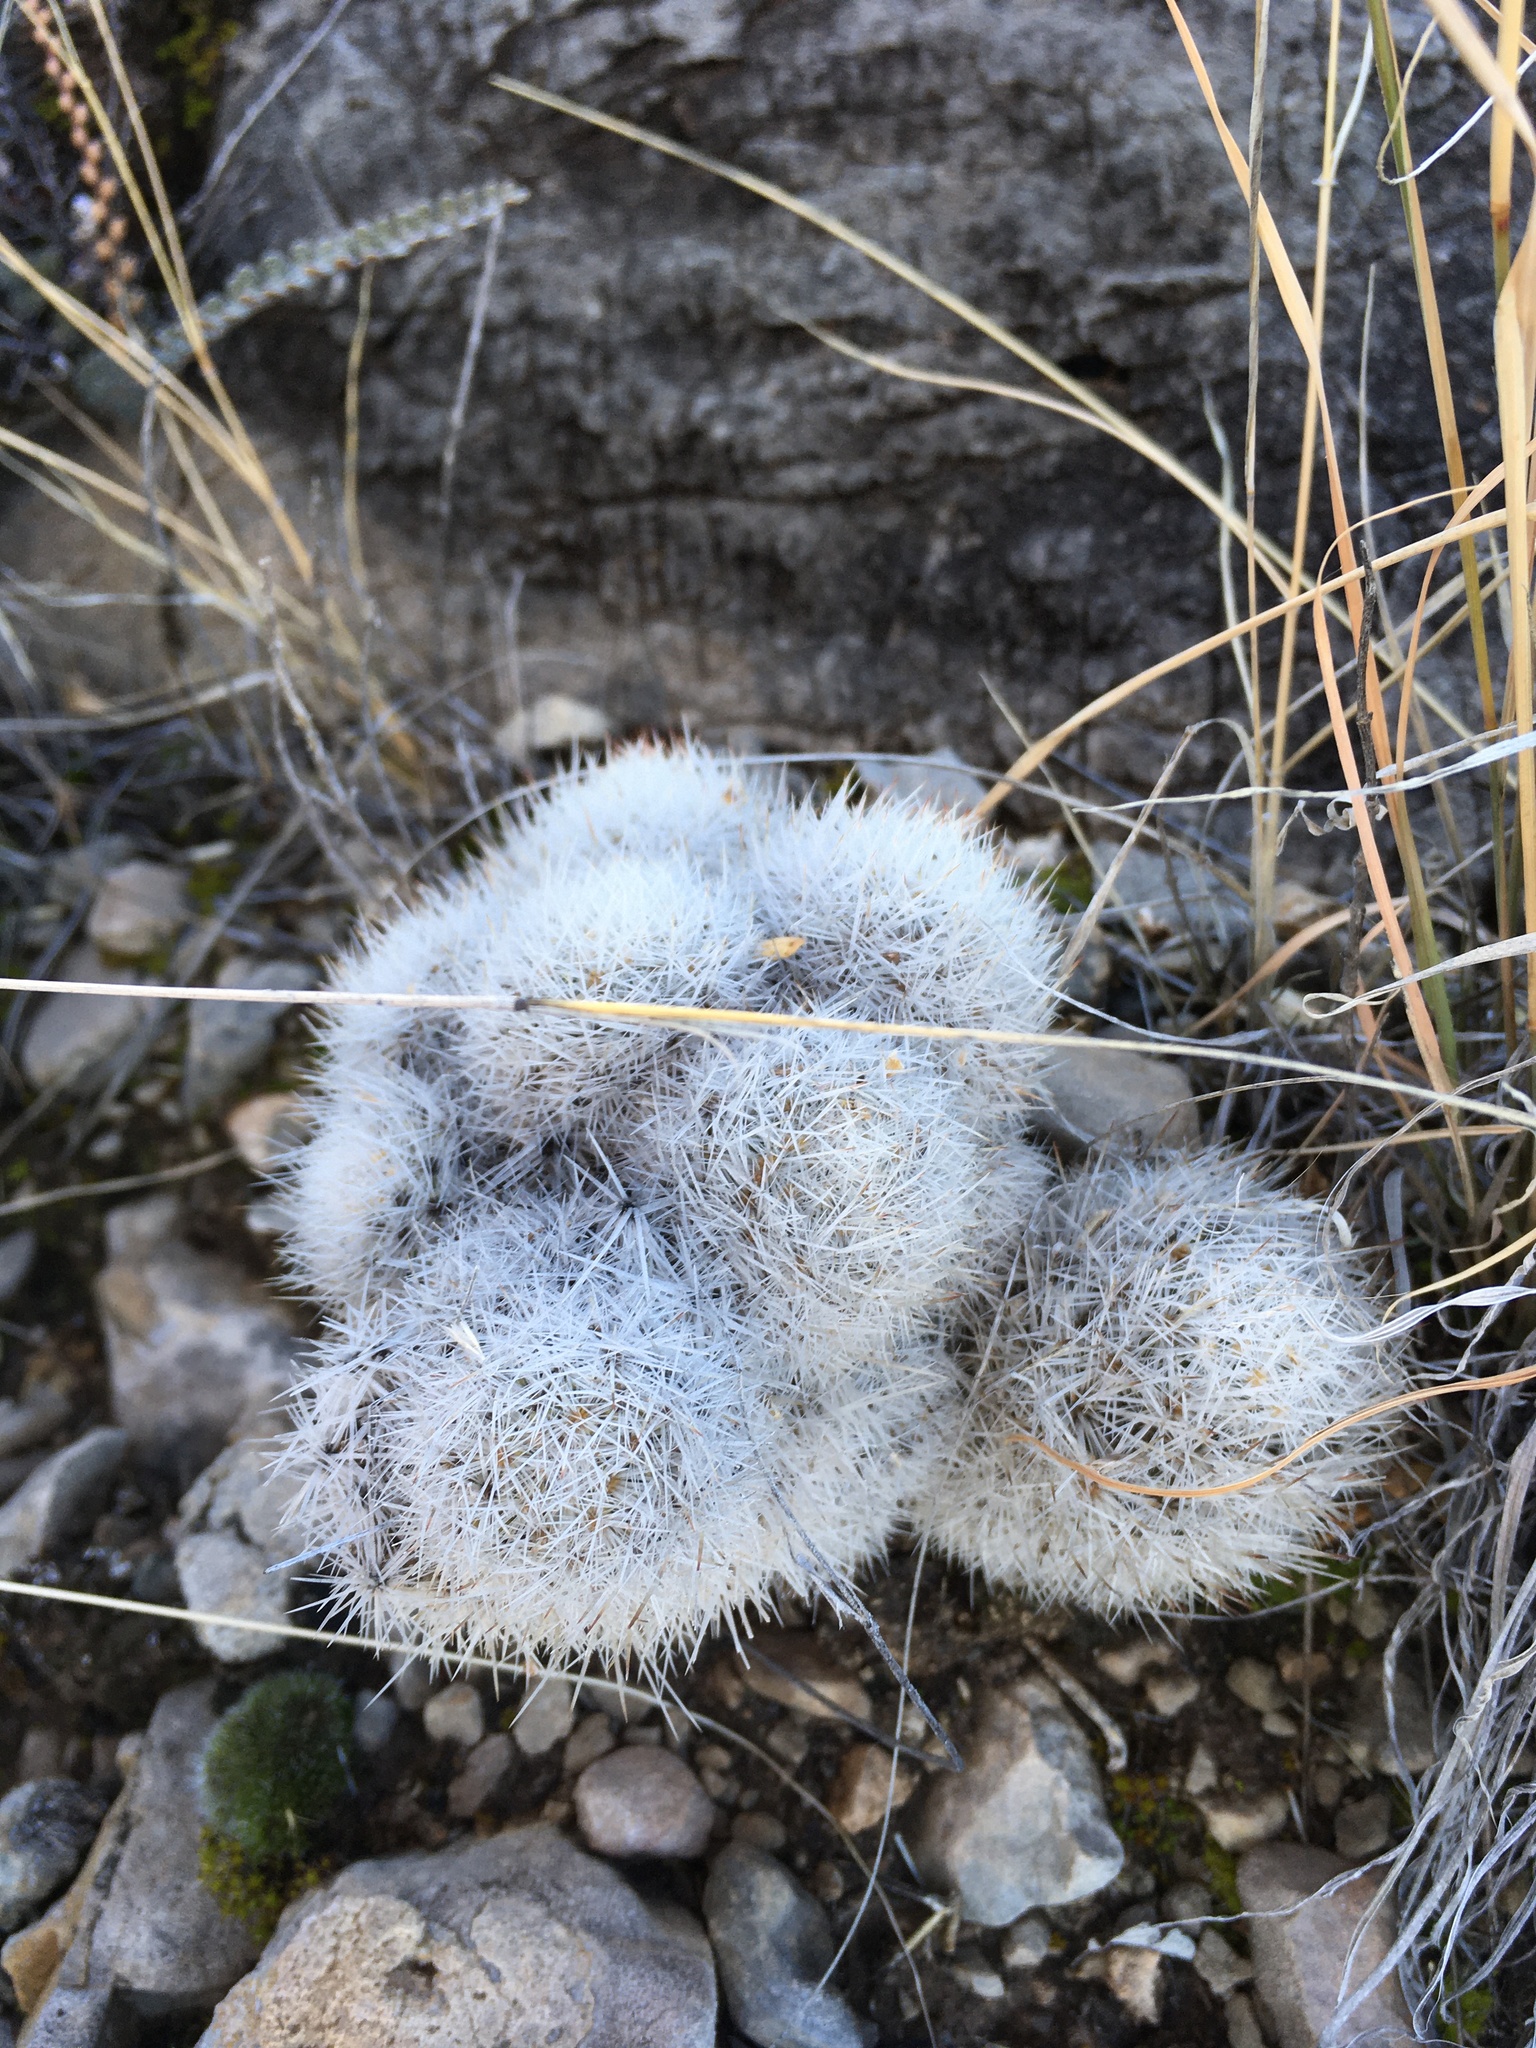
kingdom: Plantae
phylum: Tracheophyta
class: Magnoliopsida
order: Caryophyllales
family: Cactaceae
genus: Pelecyphora
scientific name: Pelecyphora sneedii
